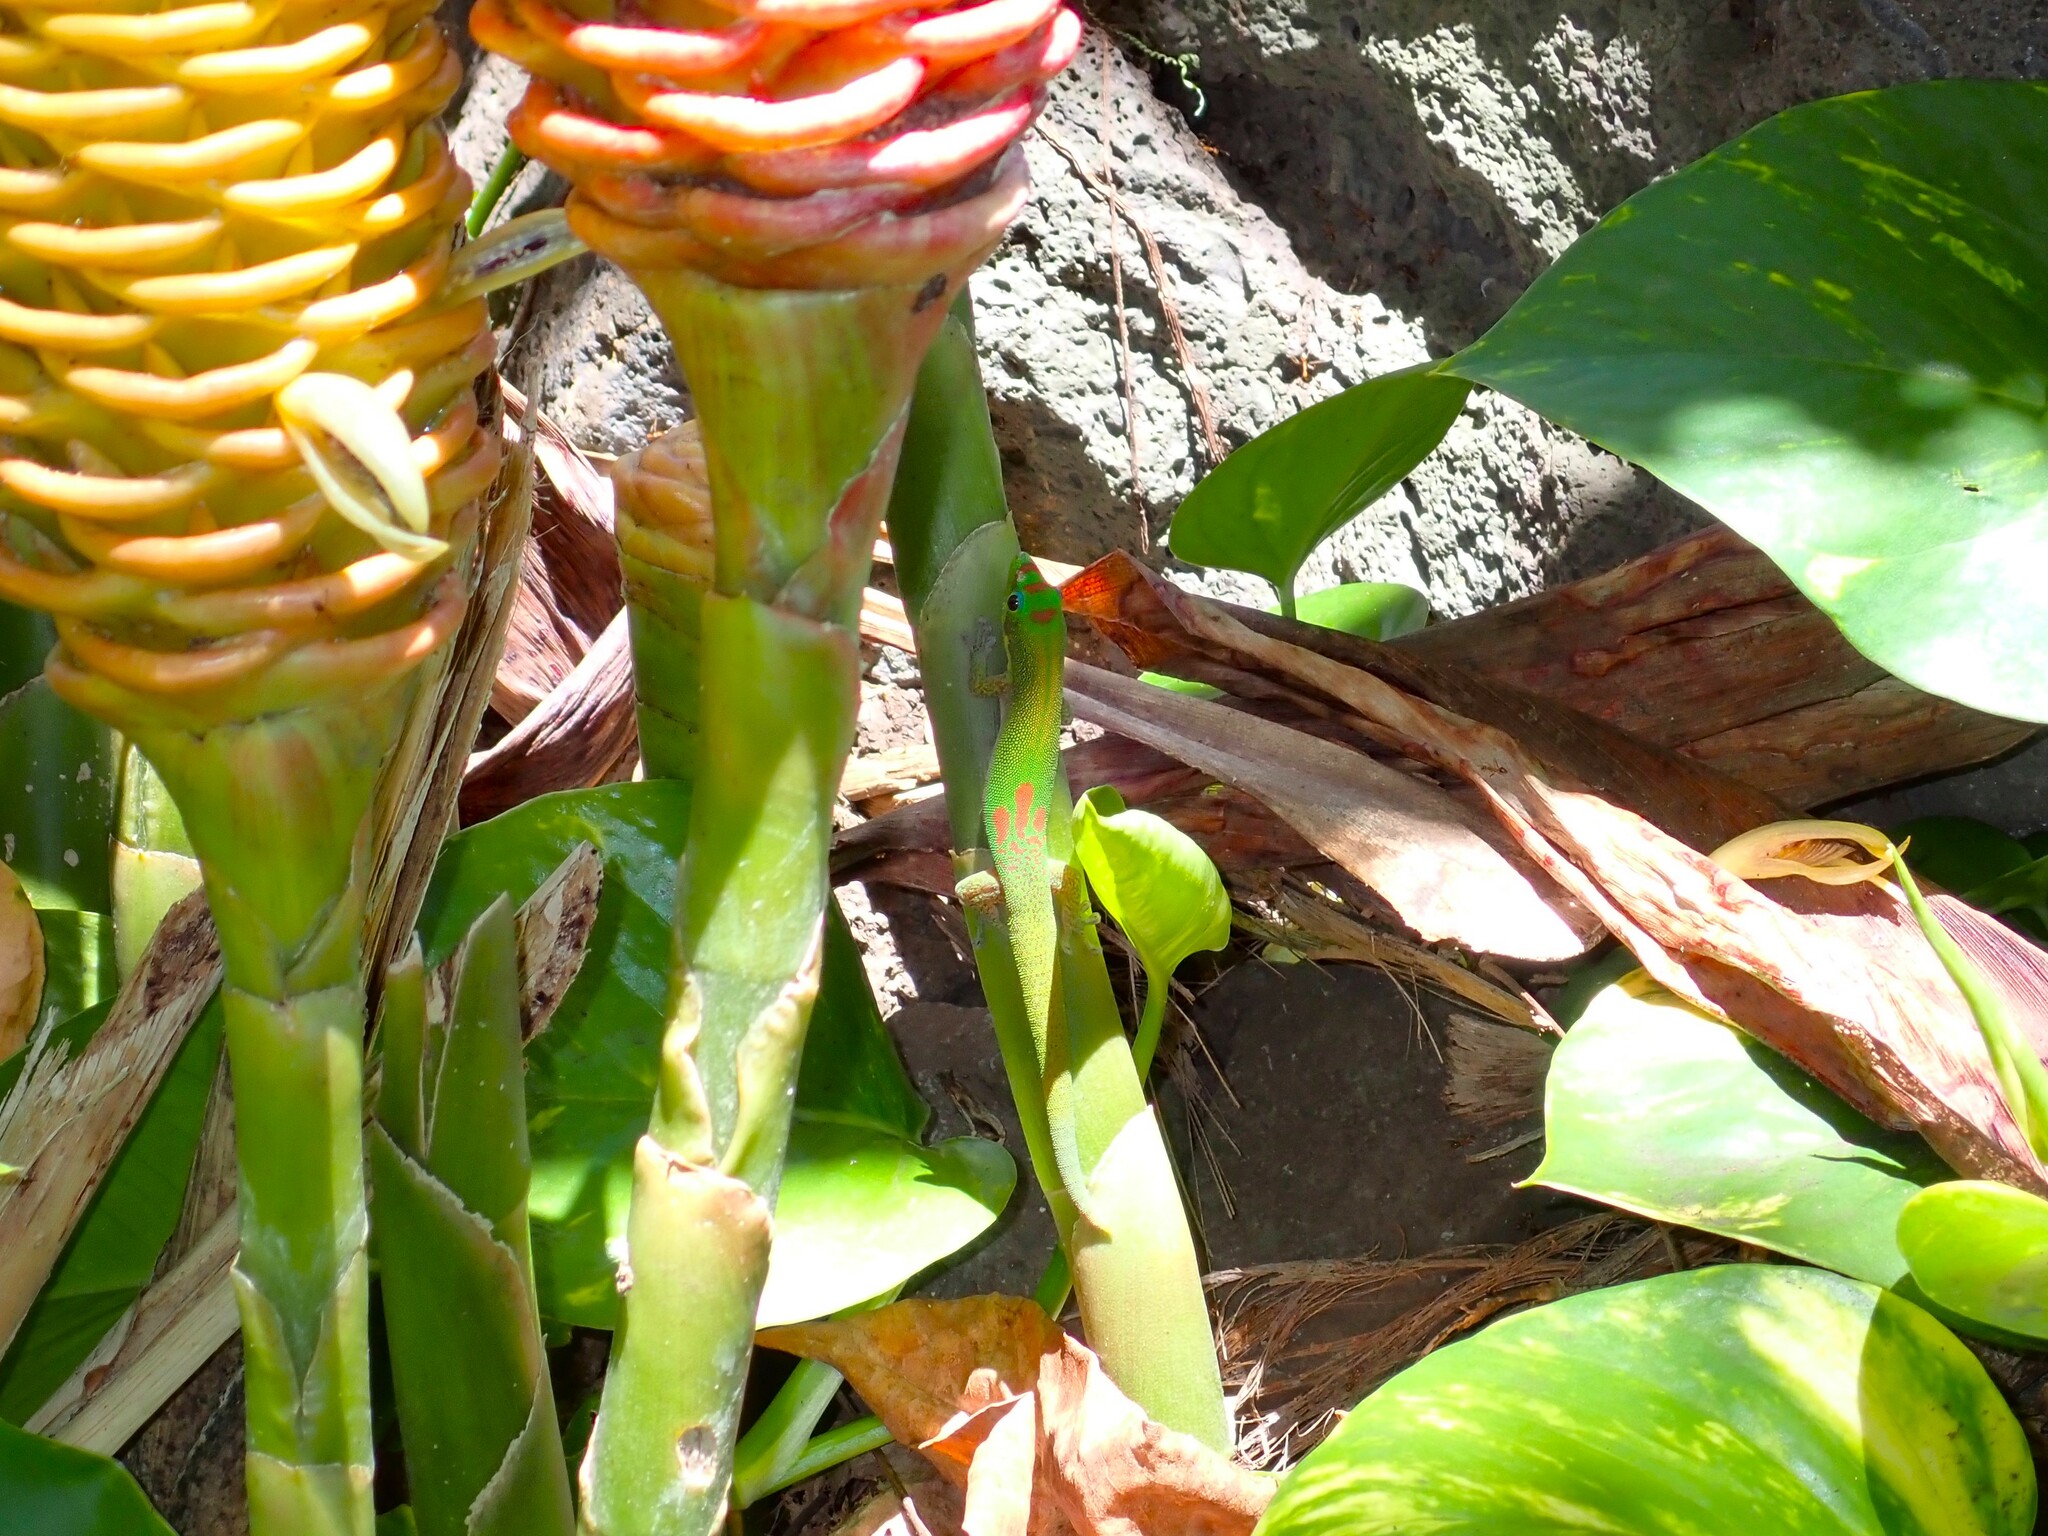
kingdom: Animalia
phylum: Chordata
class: Squamata
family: Gekkonidae
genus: Phelsuma
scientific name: Phelsuma laticauda
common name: Gold dust day gecko
